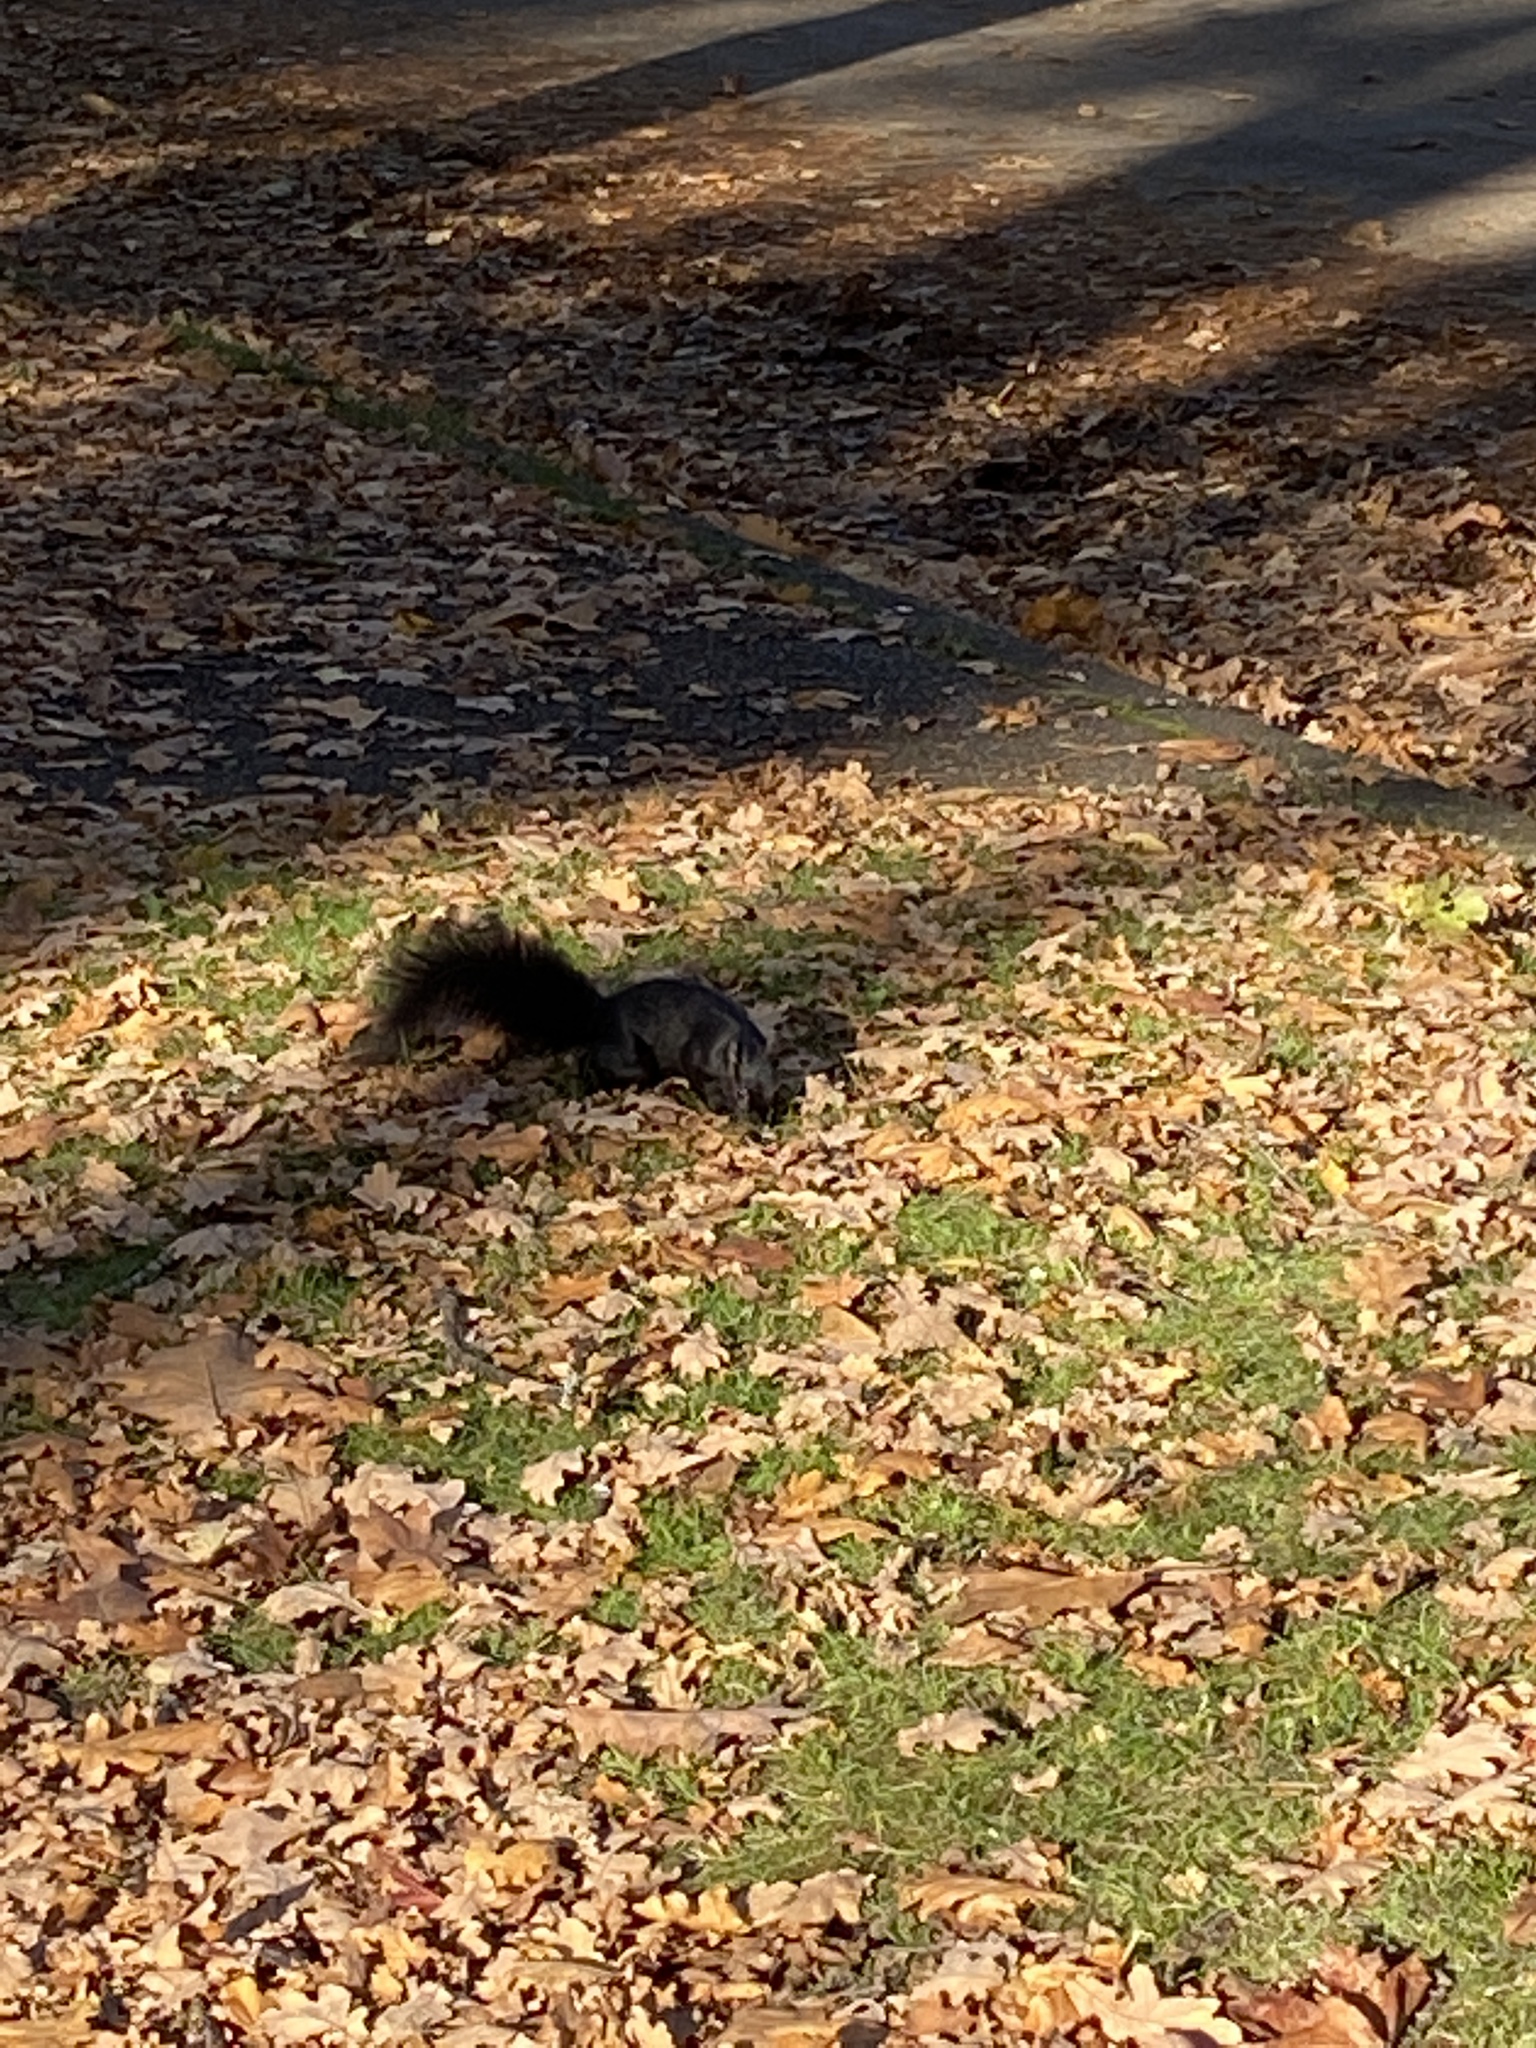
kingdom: Animalia
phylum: Chordata
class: Mammalia
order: Rodentia
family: Sciuridae
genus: Sciurus
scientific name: Sciurus carolinensis
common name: Eastern gray squirrel
